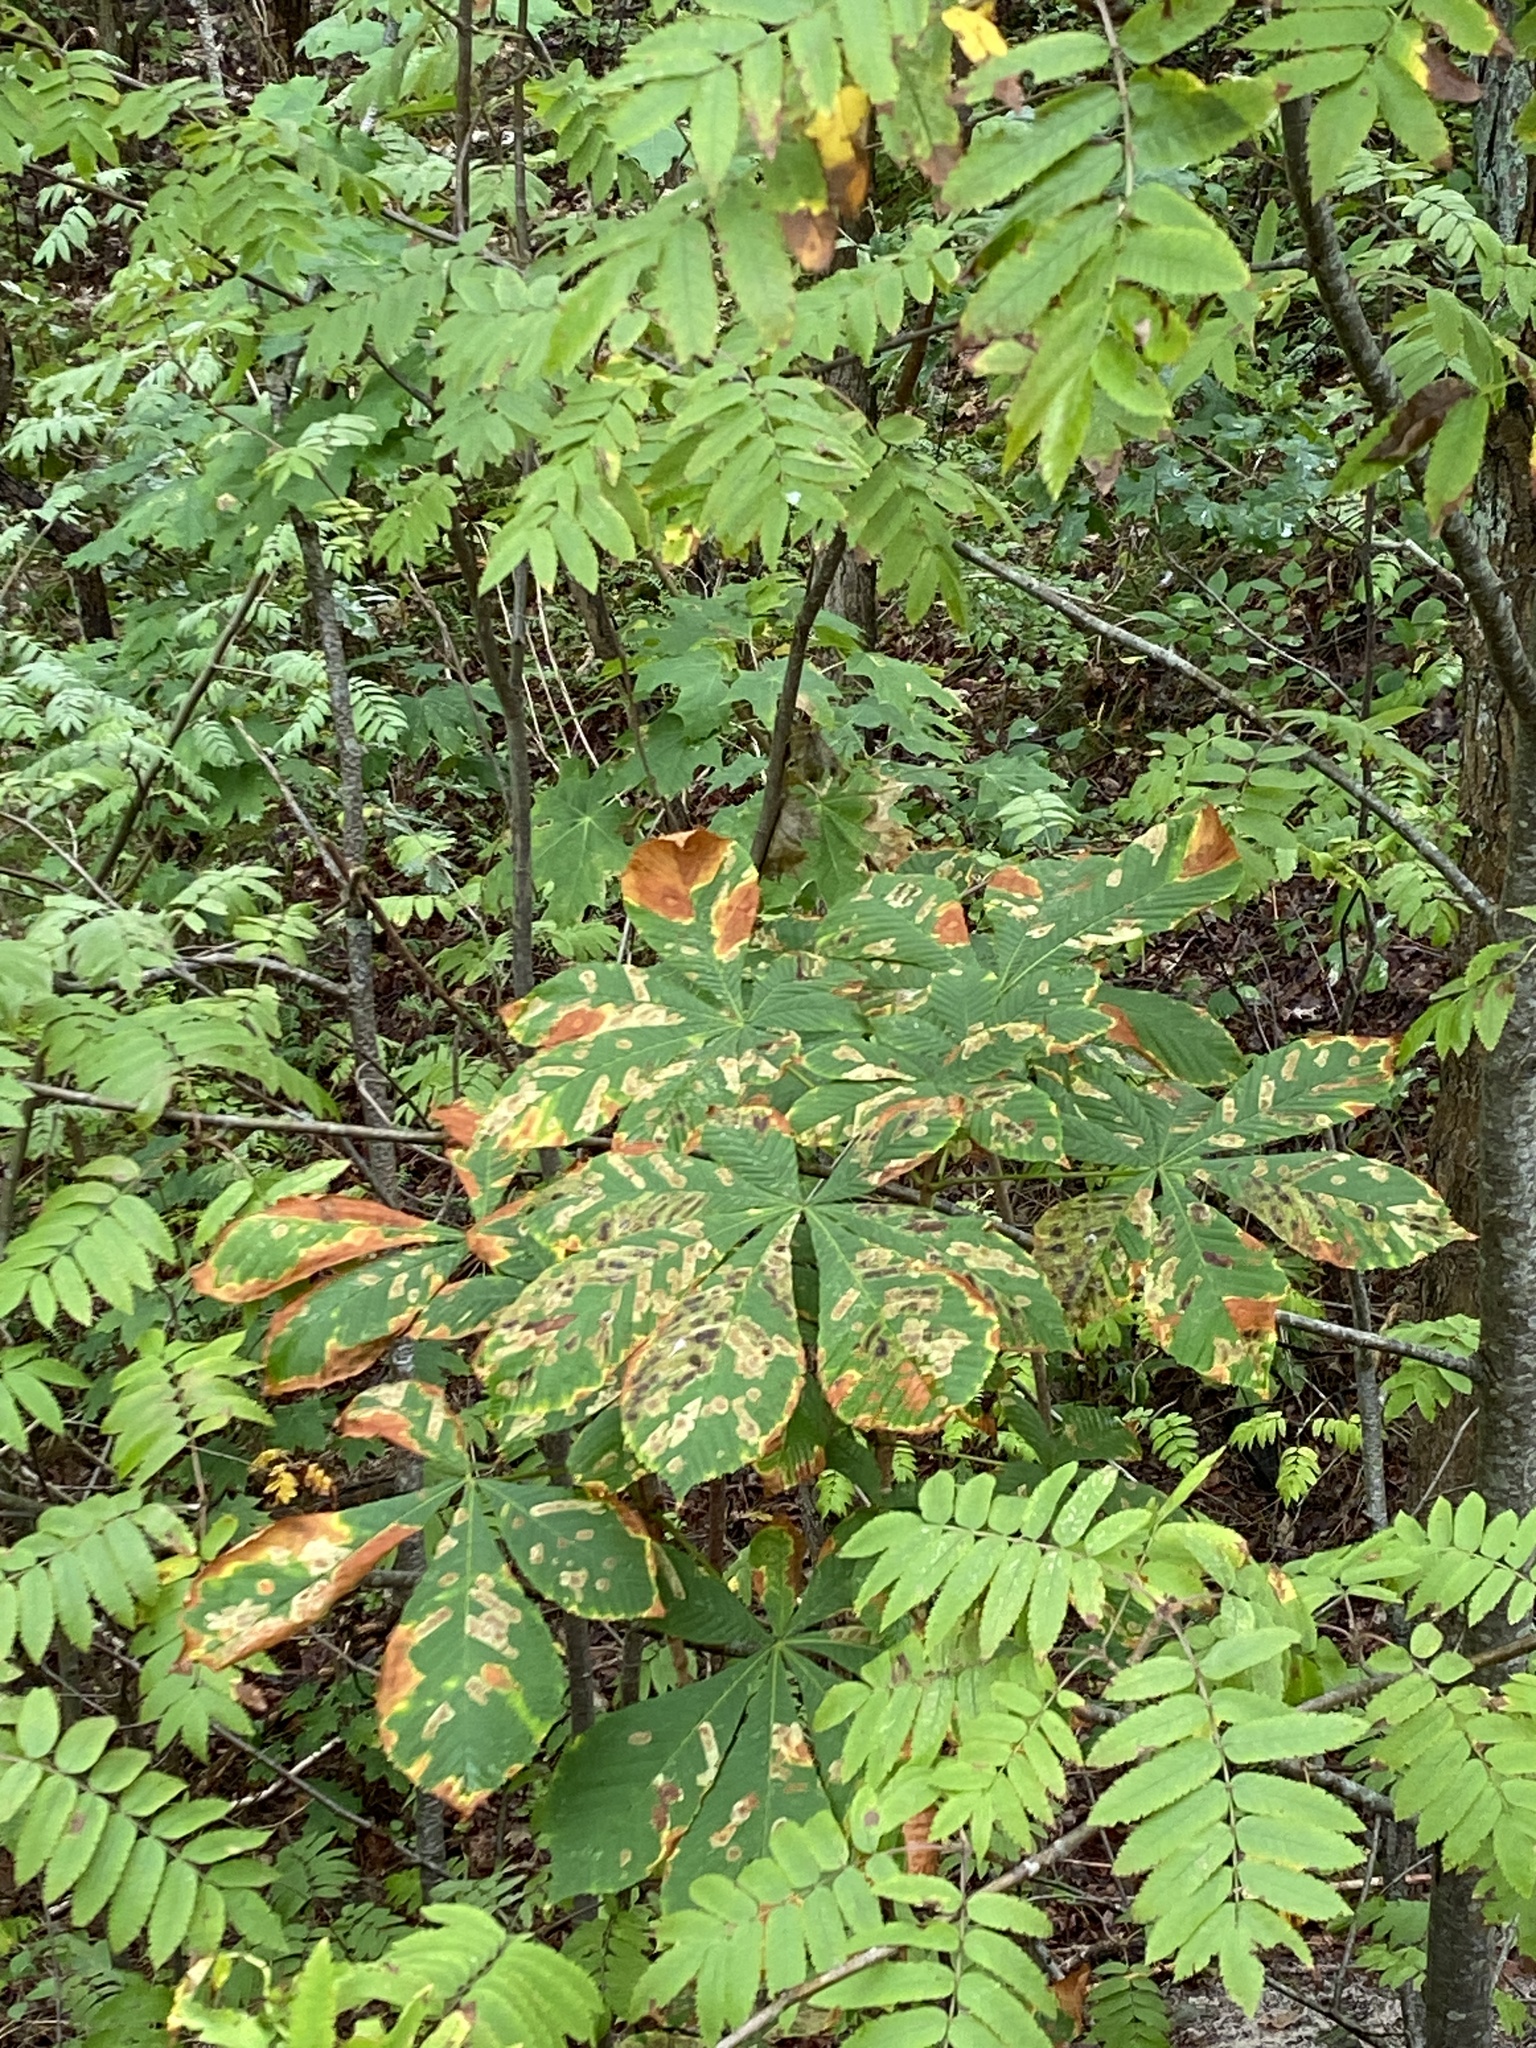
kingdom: Plantae
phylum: Tracheophyta
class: Magnoliopsida
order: Sapindales
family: Sapindaceae
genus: Aesculus
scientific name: Aesculus hippocastanum
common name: Horse-chestnut
